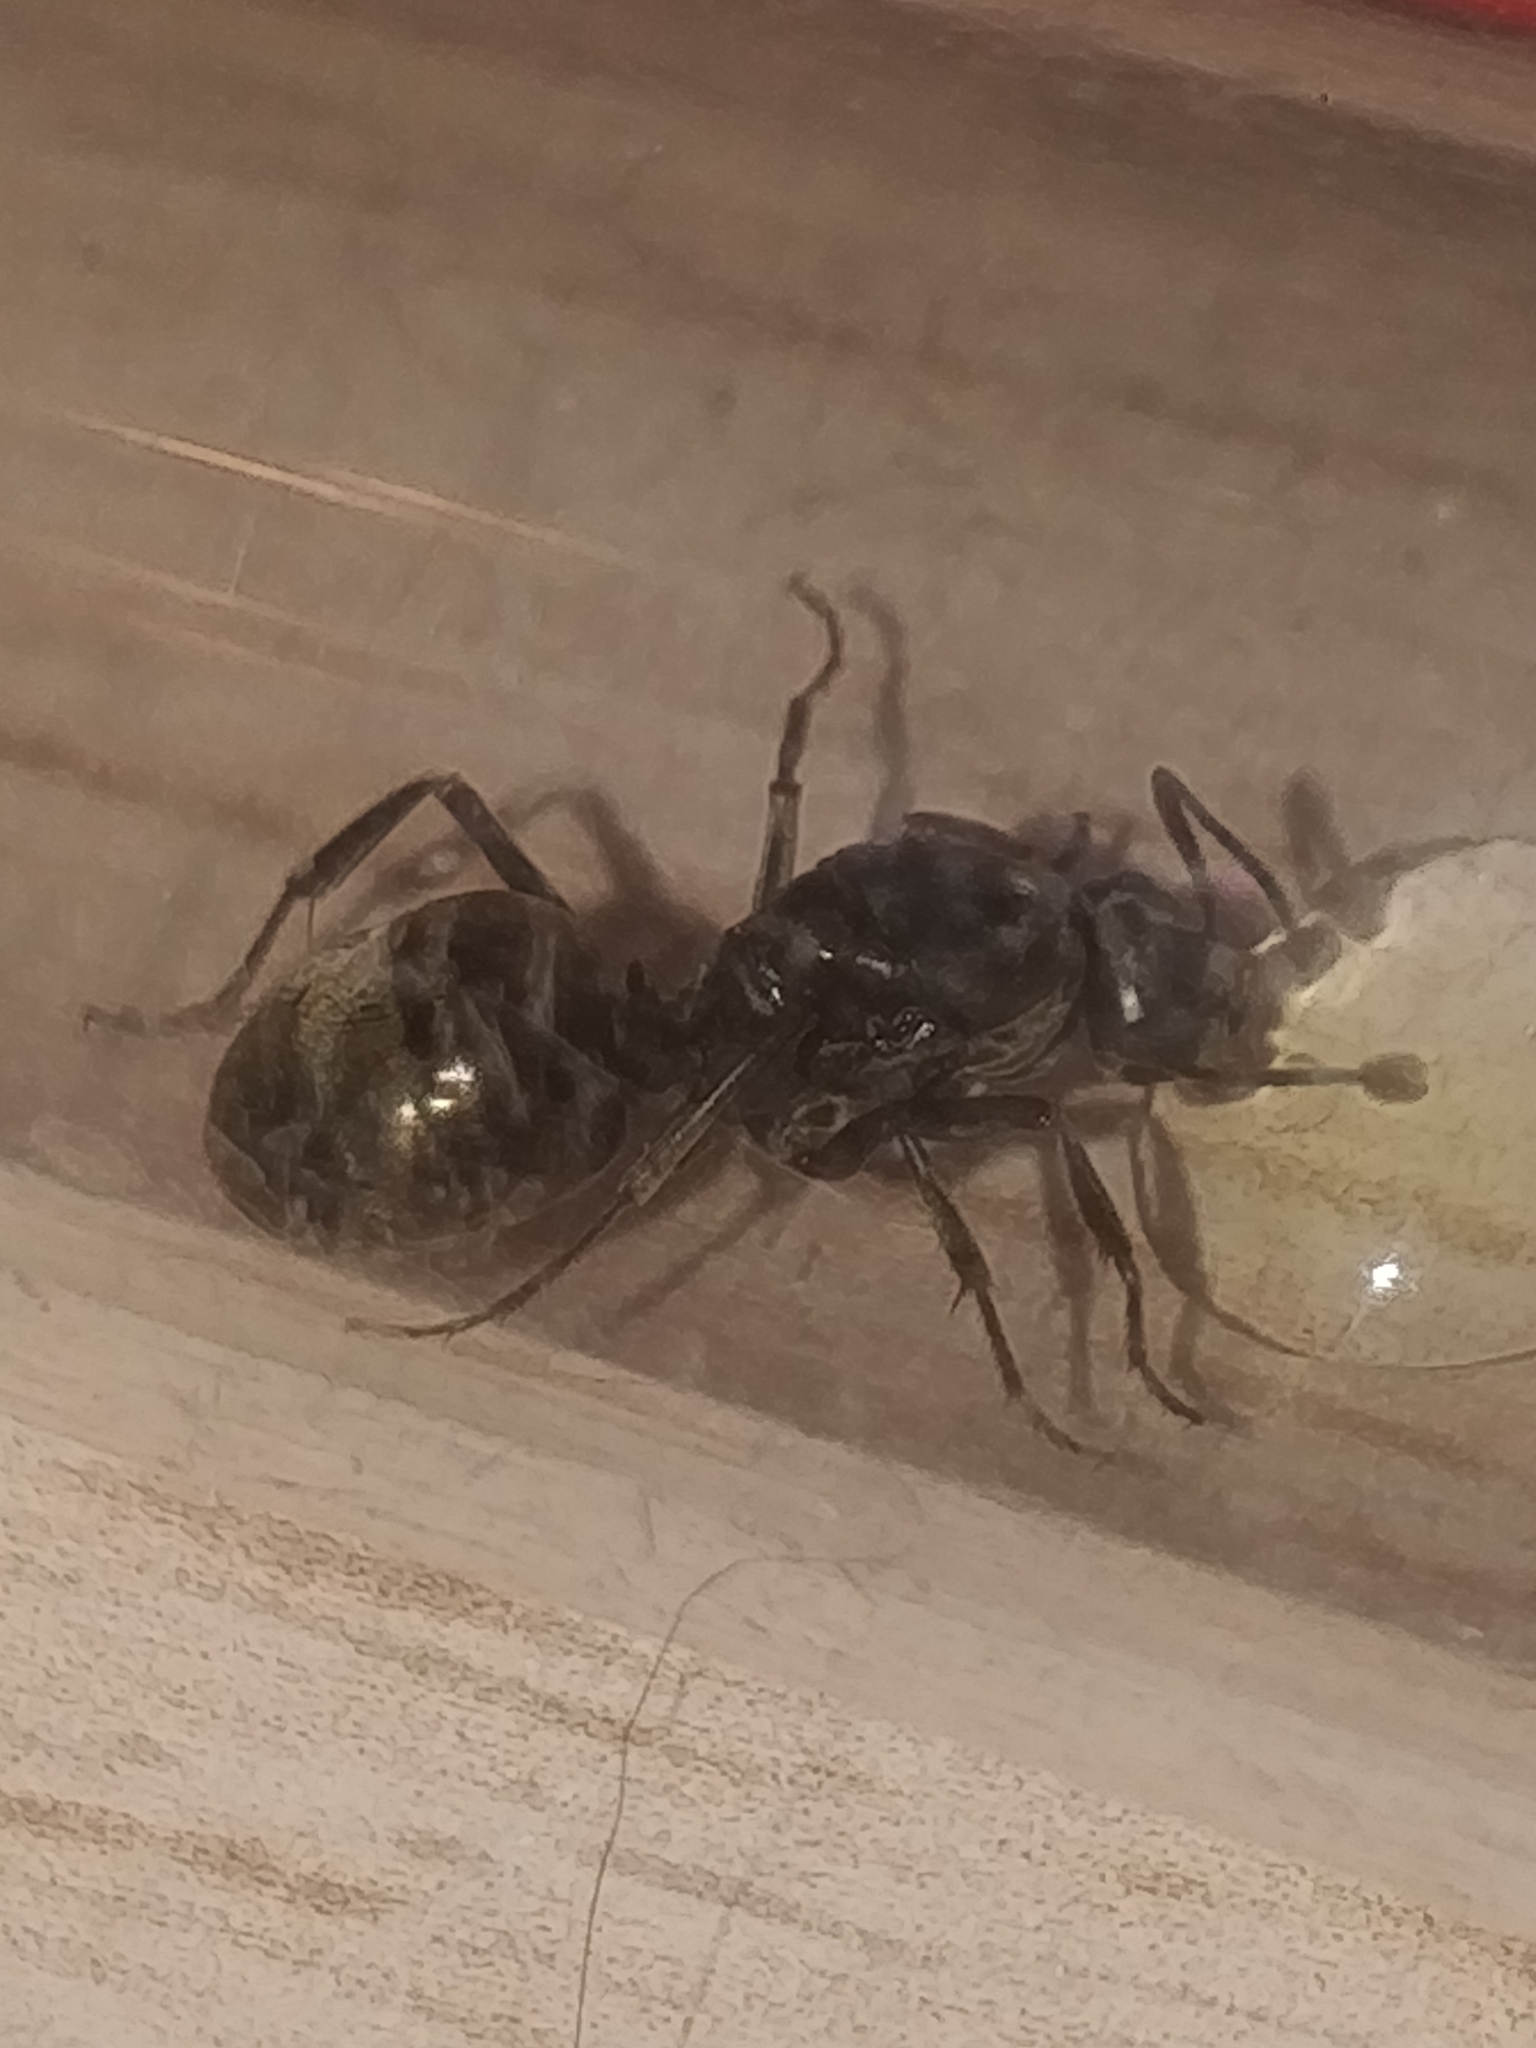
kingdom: Animalia
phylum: Arthropoda
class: Insecta
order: Hymenoptera
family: Formicidae
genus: Formica
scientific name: Formica subsericea
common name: Silky field ant
